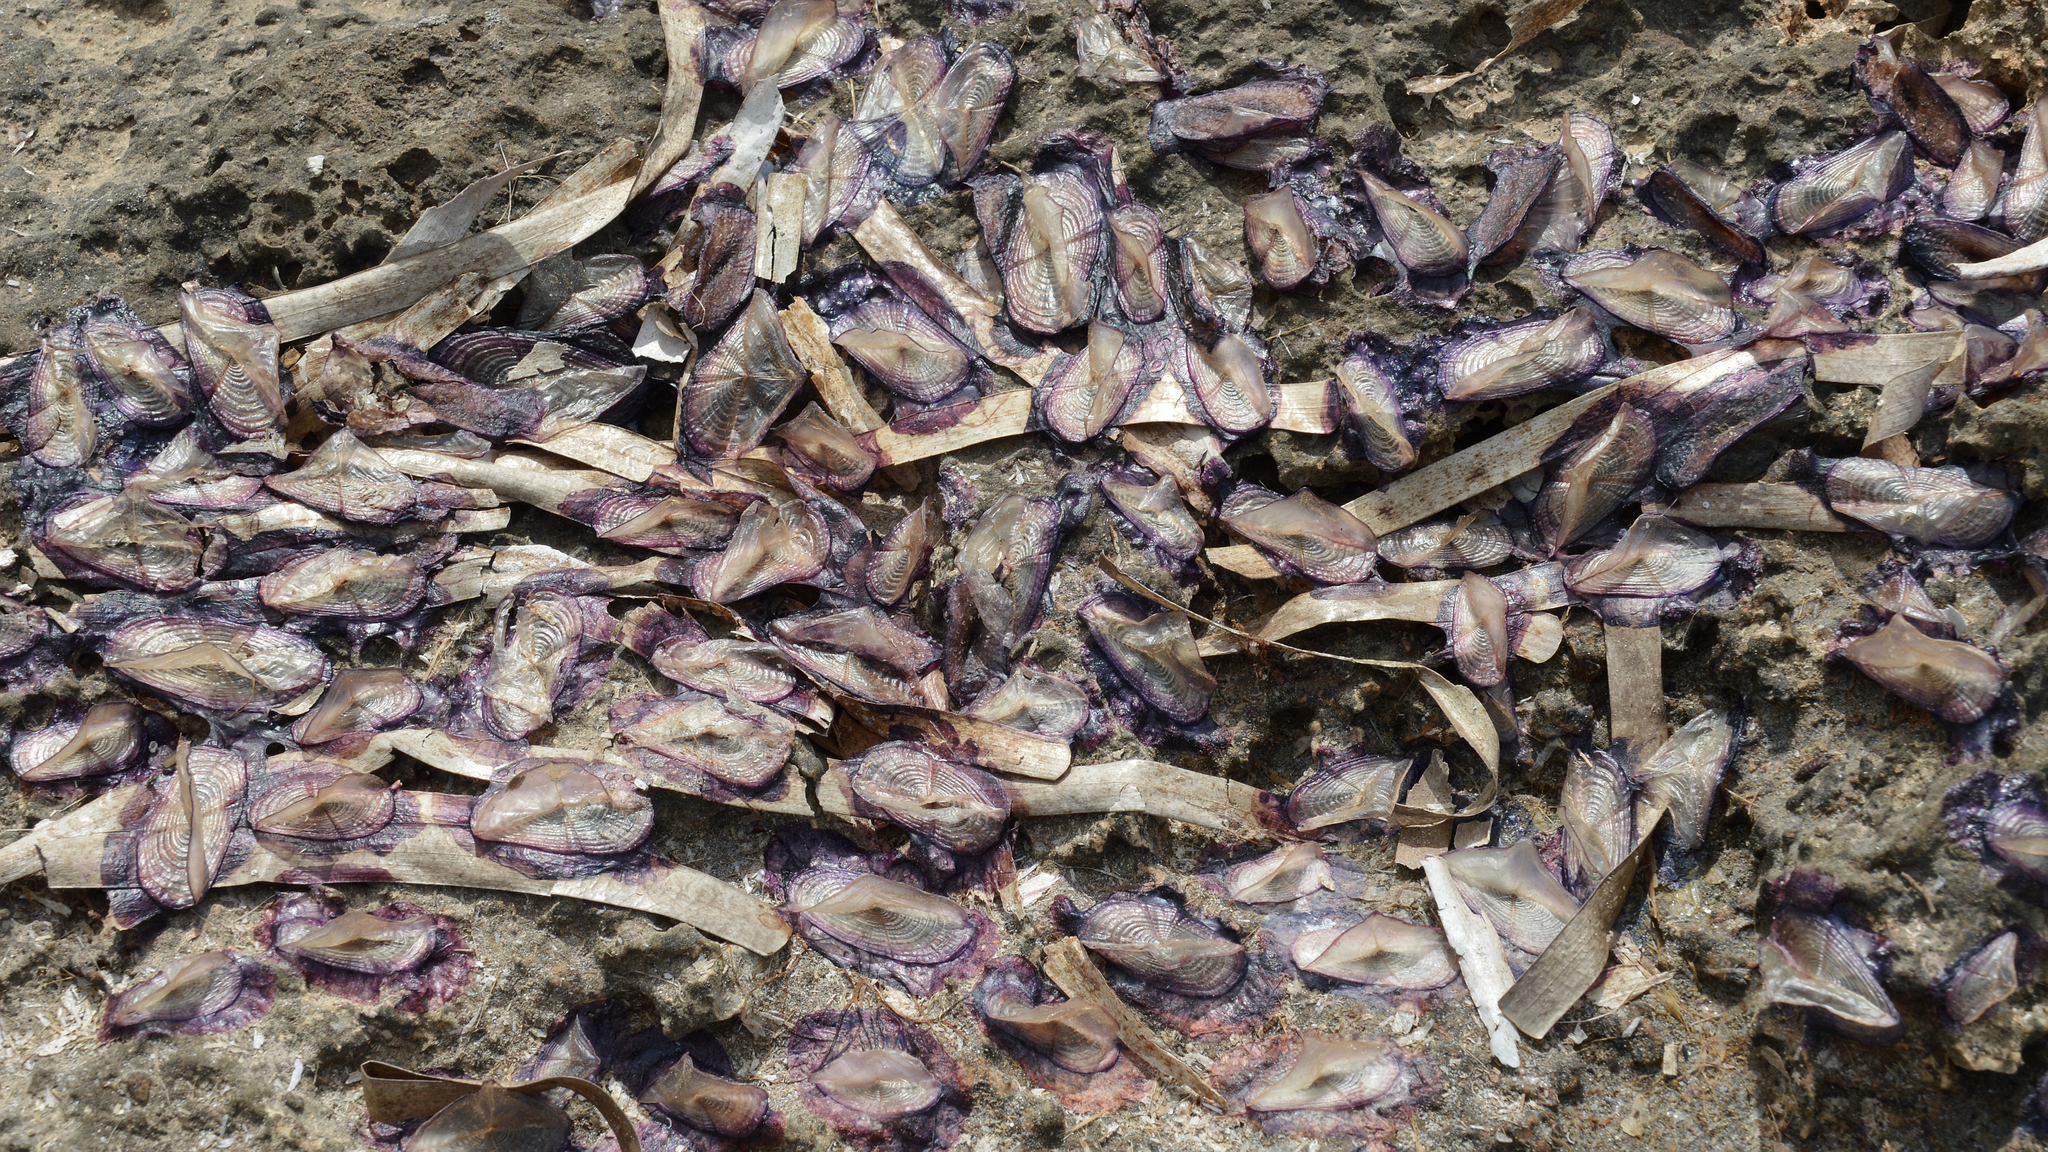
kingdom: Animalia
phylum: Cnidaria
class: Hydrozoa
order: Anthoathecata
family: Porpitidae
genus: Velella
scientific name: Velella velella
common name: By-the-wind-sailor
